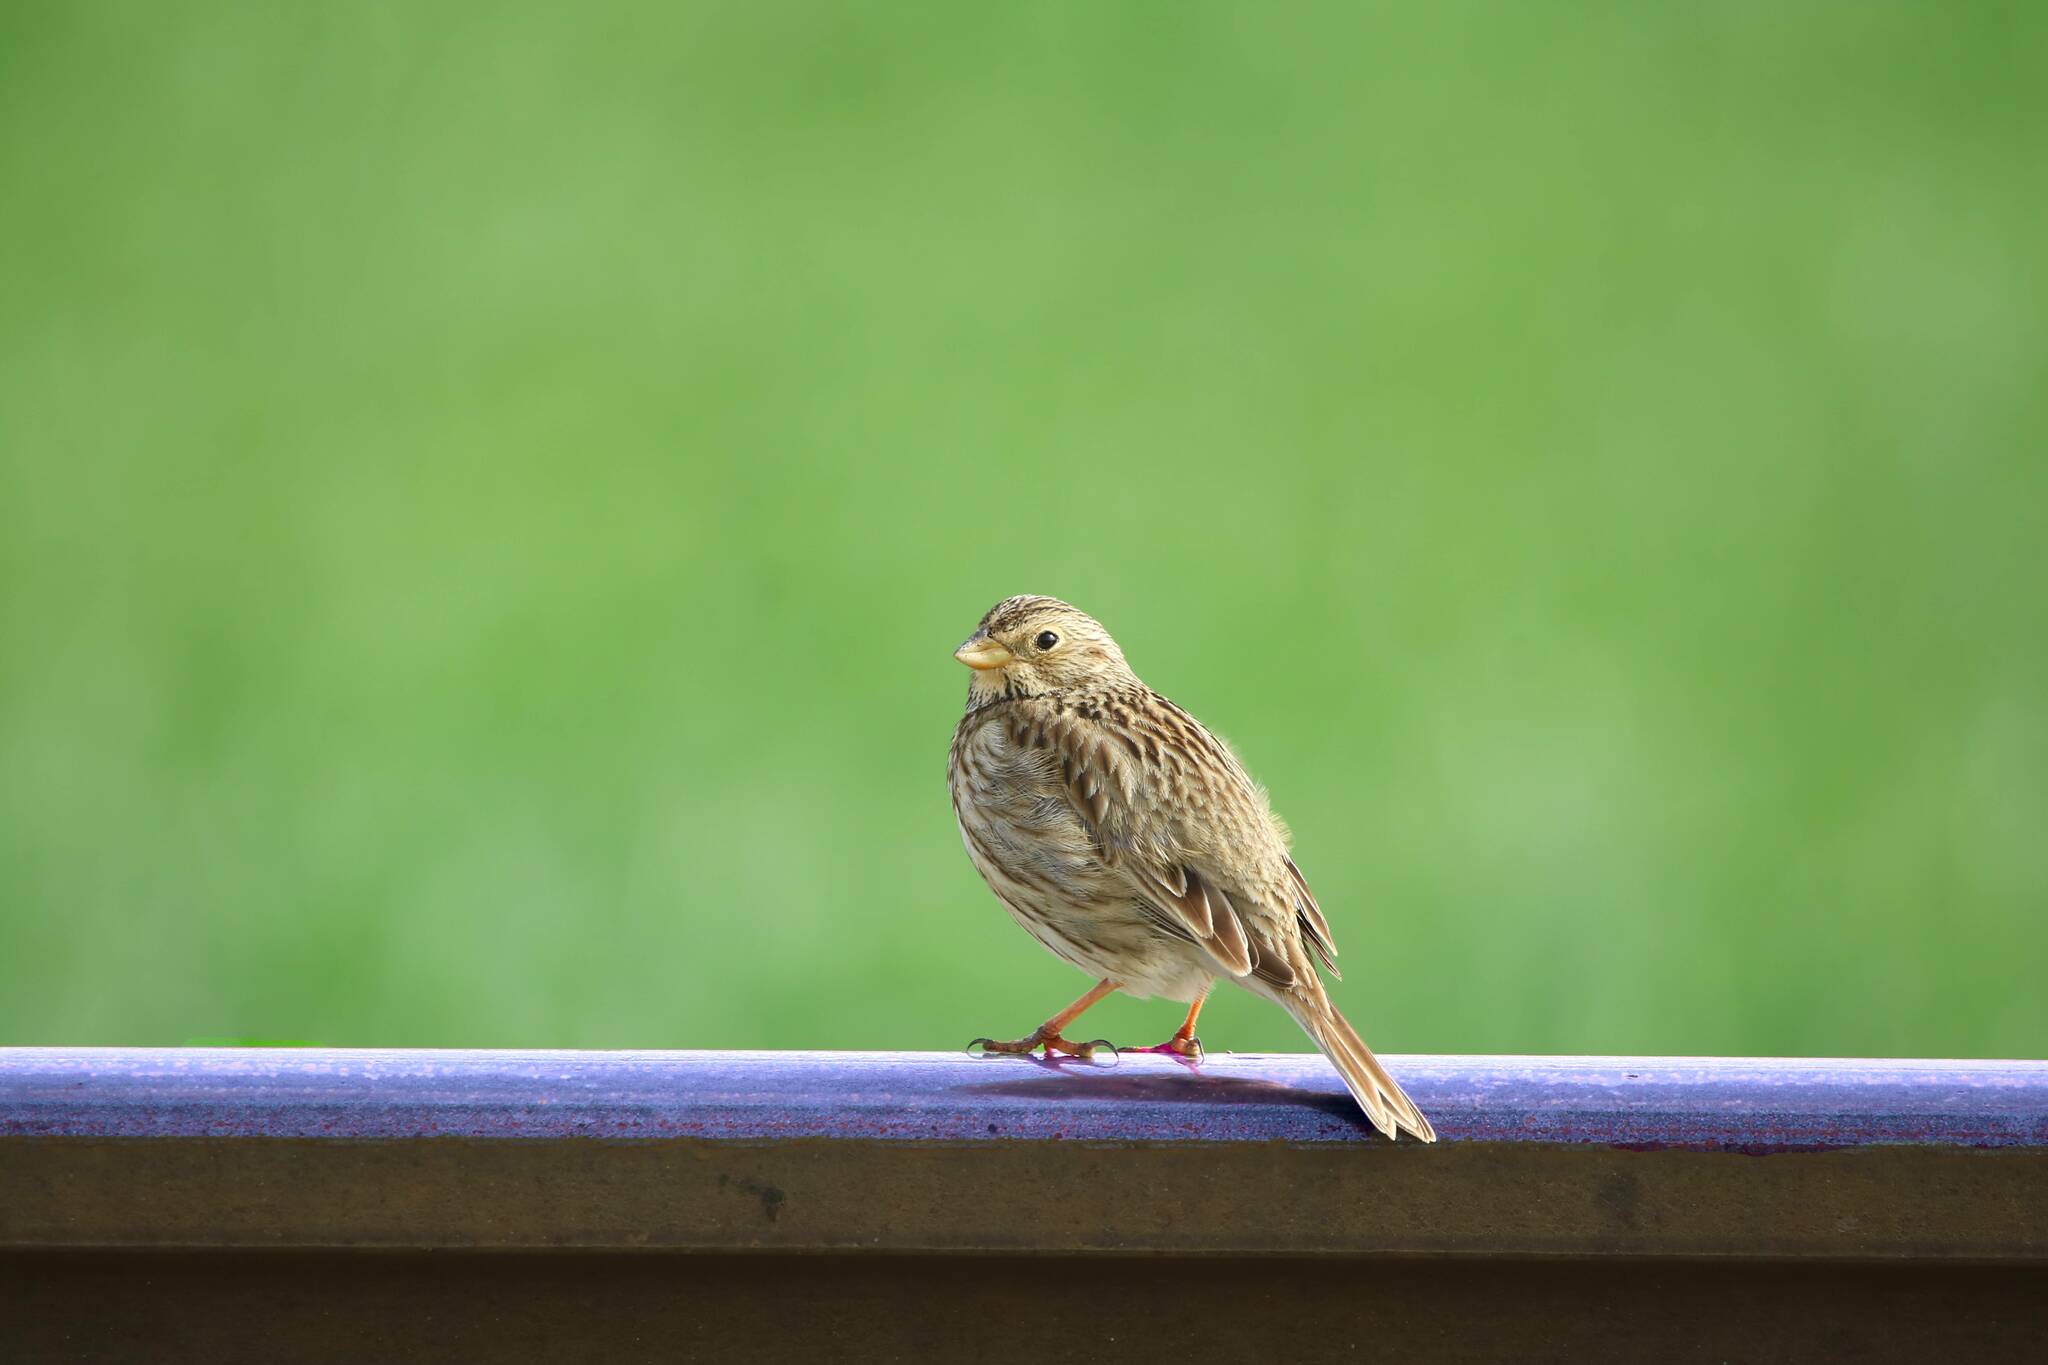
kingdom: Animalia
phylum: Chordata
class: Aves
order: Passeriformes
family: Emberizidae
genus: Emberiza
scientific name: Emberiza calandra
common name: Corn bunting
